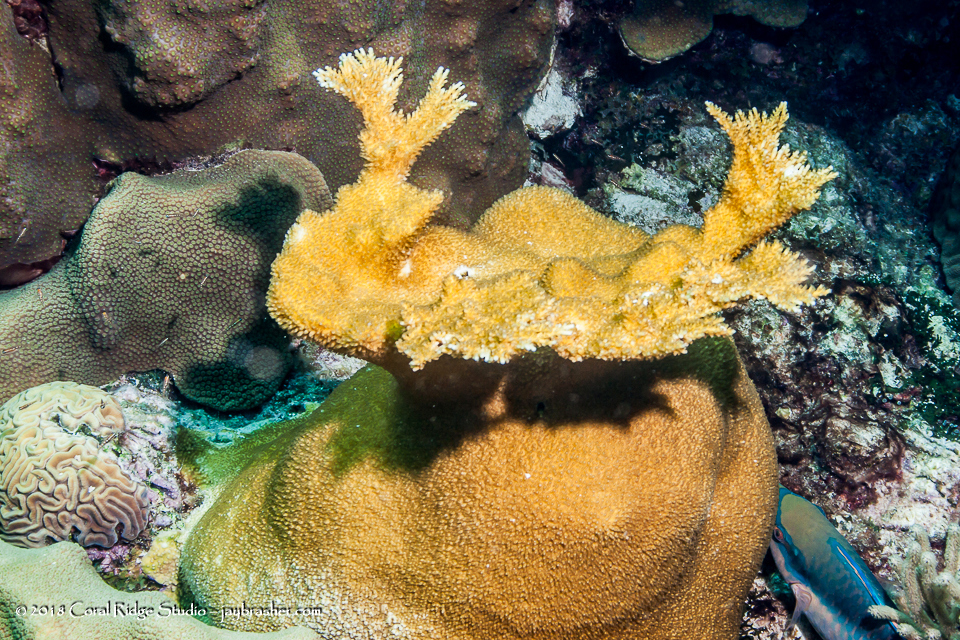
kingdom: Animalia
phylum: Cnidaria
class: Anthozoa
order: Scleractinia
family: Acroporidae
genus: Acropora
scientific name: Acropora palmata
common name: Elkhorn coral
